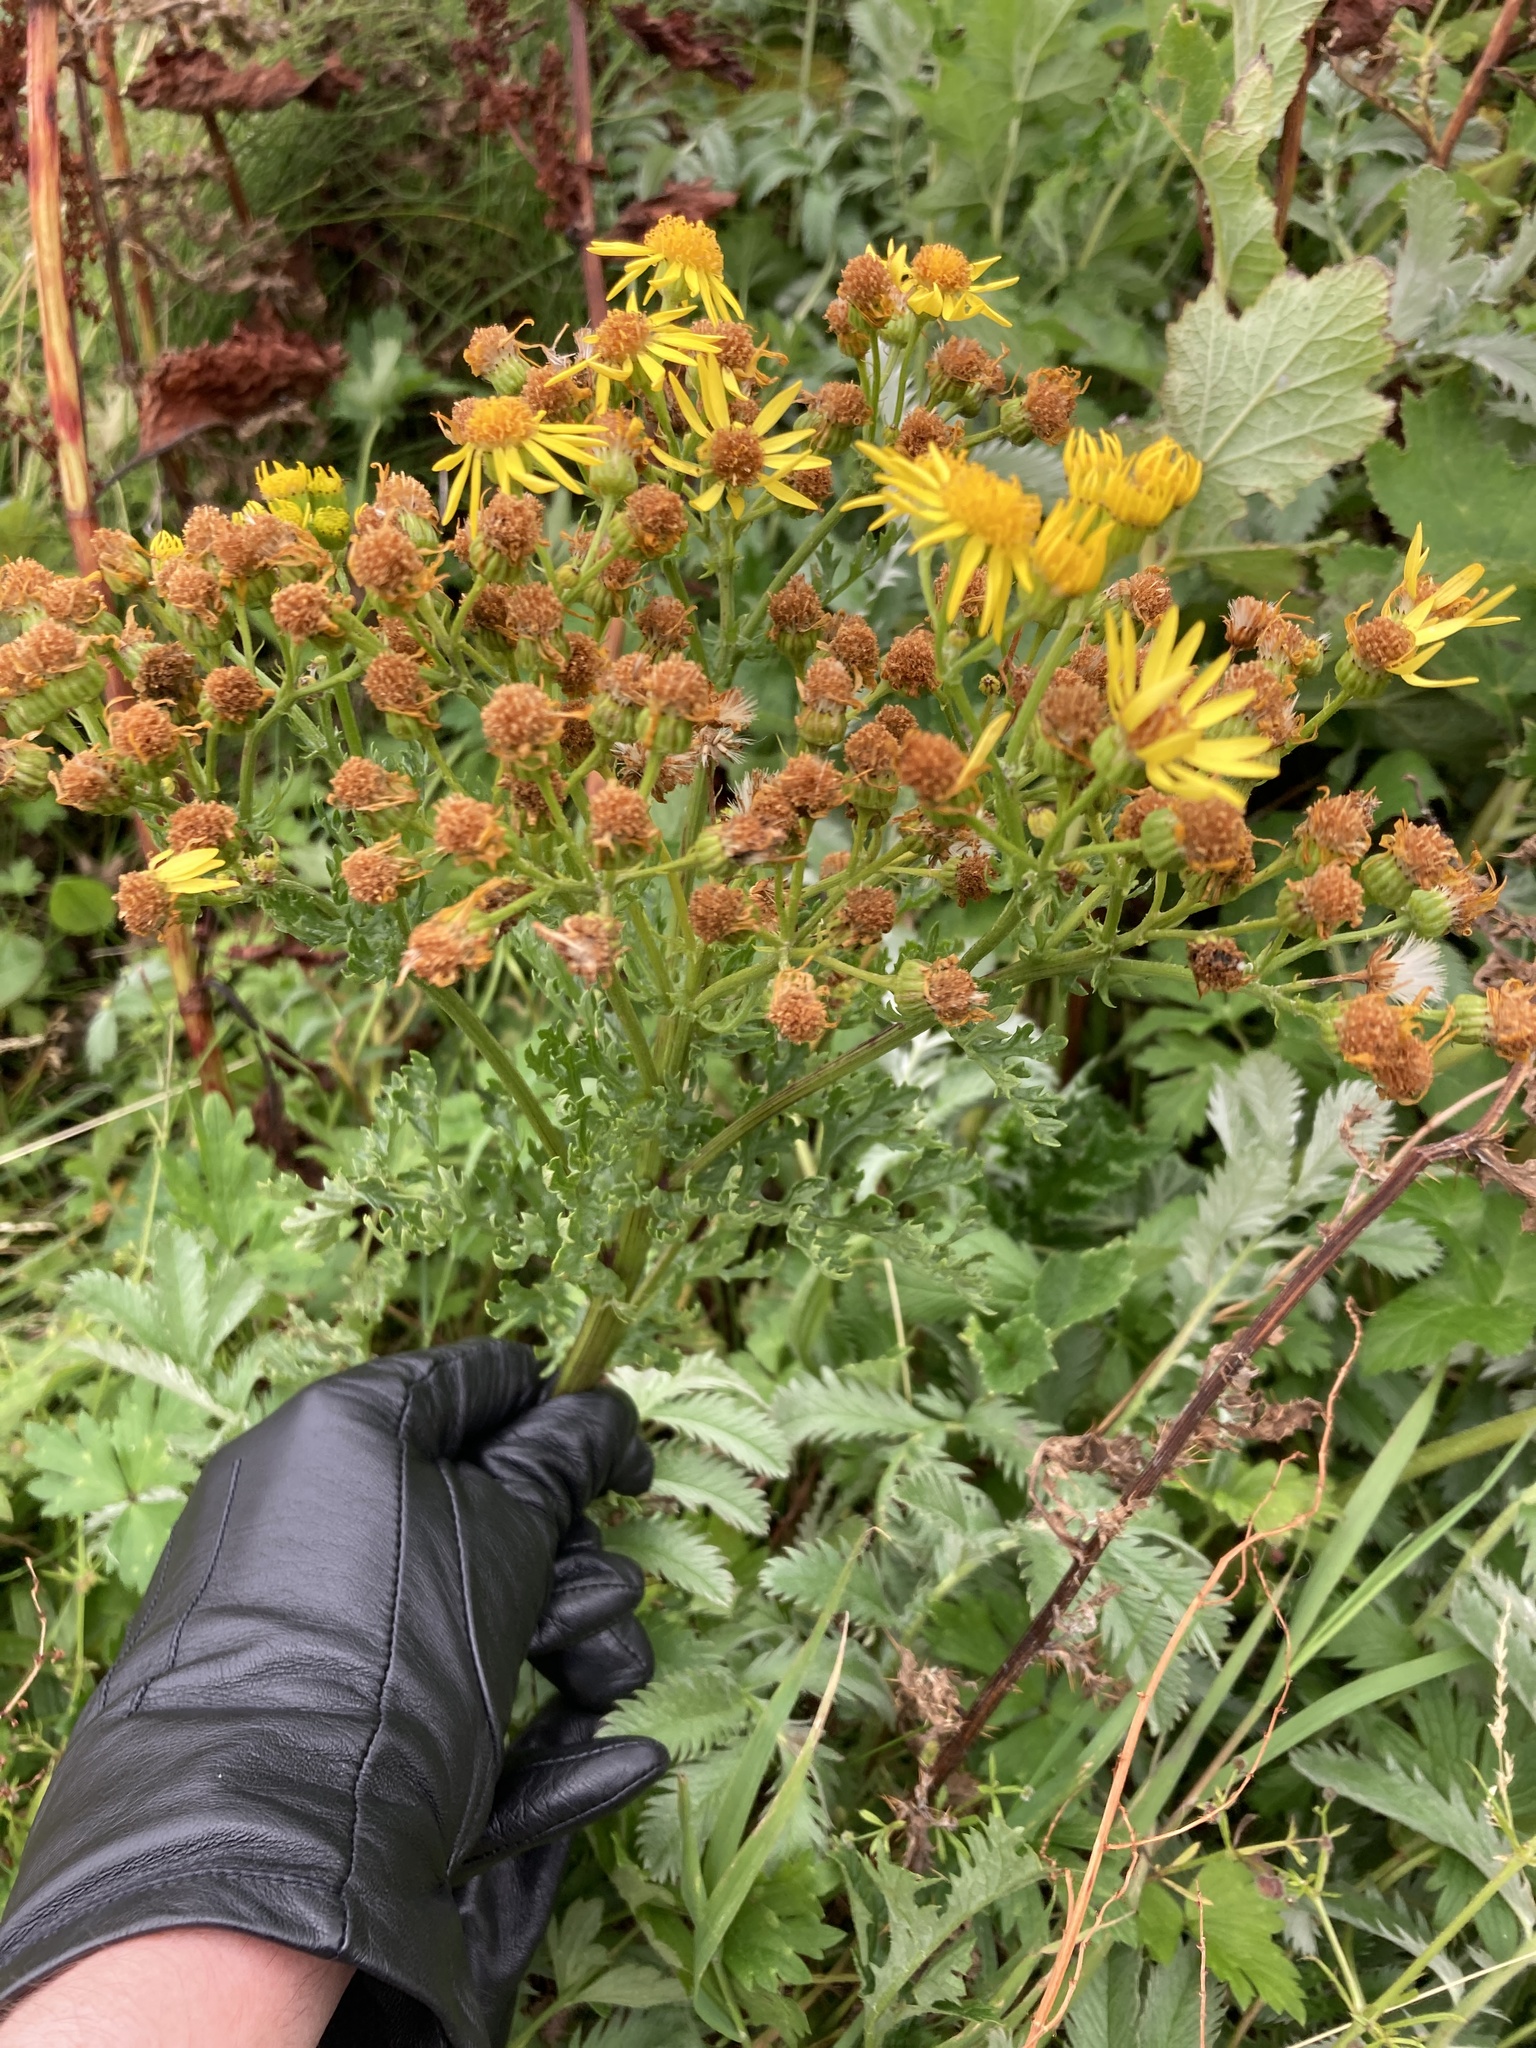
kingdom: Plantae
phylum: Tracheophyta
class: Magnoliopsida
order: Asterales
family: Asteraceae
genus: Jacobaea
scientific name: Jacobaea vulgaris
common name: Stinking willie
